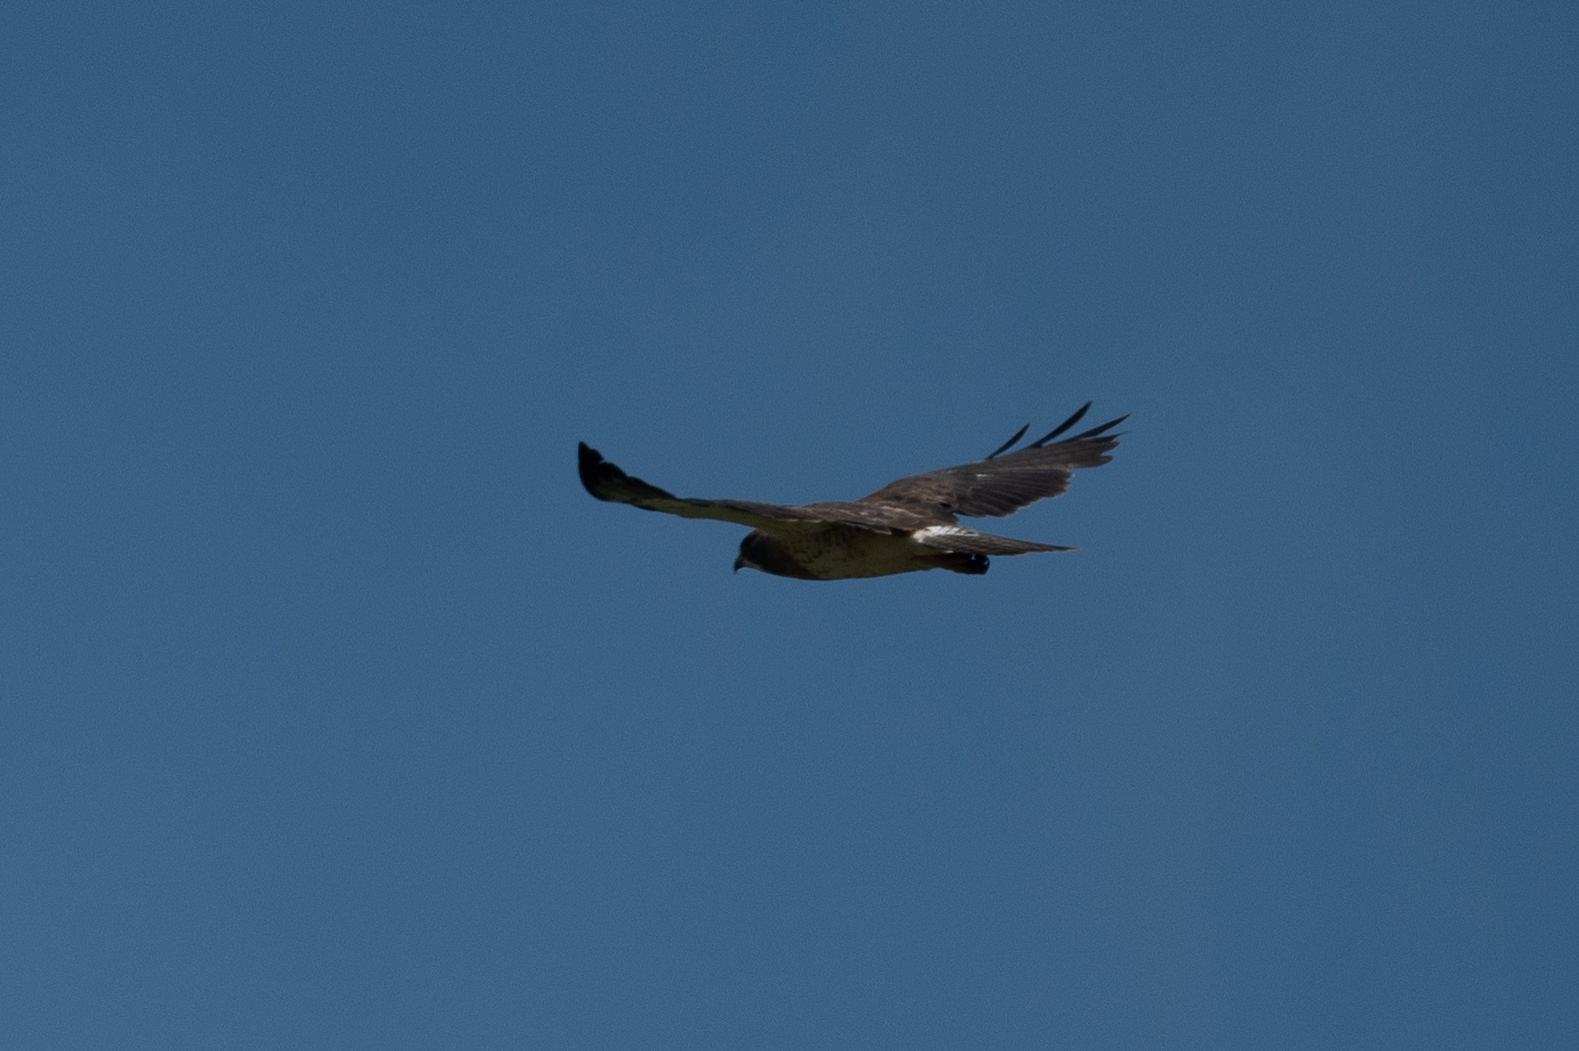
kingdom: Animalia
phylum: Chordata
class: Aves
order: Accipitriformes
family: Accipitridae
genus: Buteo
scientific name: Buteo swainsoni
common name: Swainson's hawk
